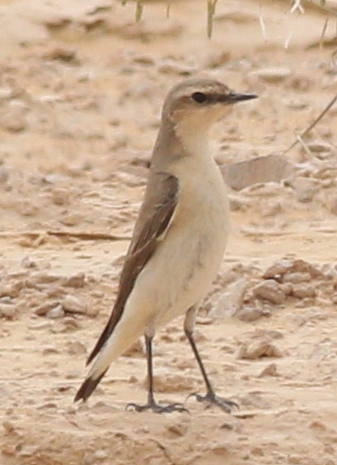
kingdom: Animalia
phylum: Chordata
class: Aves
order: Passeriformes
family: Muscicapidae
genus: Oenanthe
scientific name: Oenanthe oenanthe
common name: Northern wheatear
